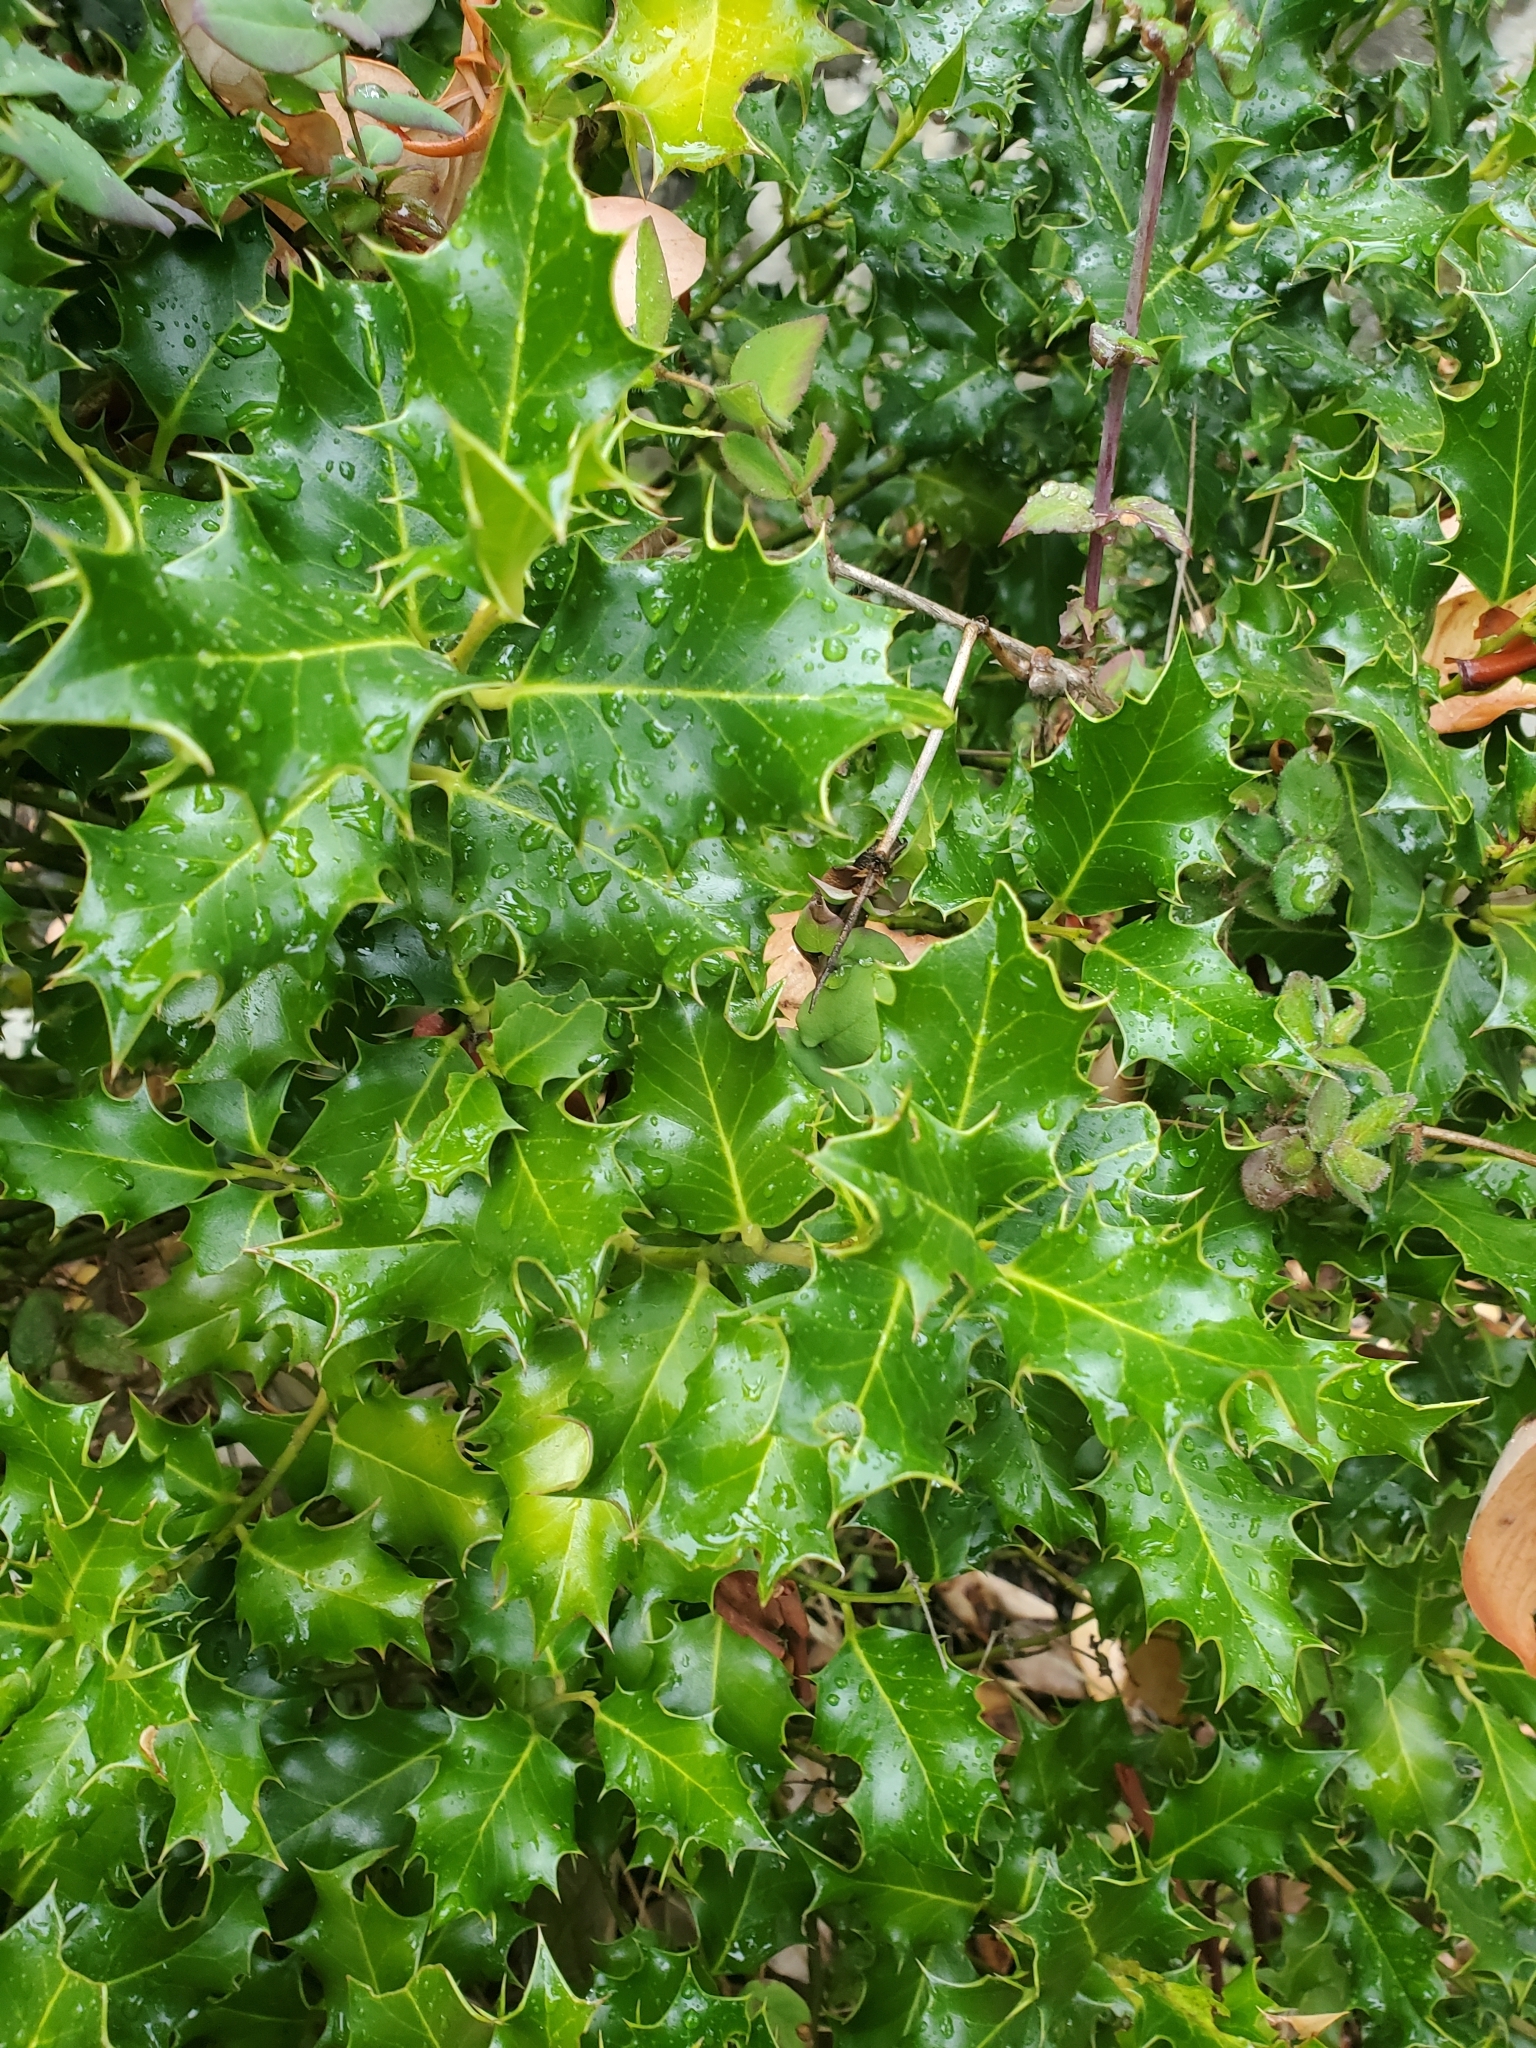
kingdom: Plantae
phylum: Tracheophyta
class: Magnoliopsida
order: Aquifoliales
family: Aquifoliaceae
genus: Ilex
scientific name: Ilex aquifolium
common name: English holly
